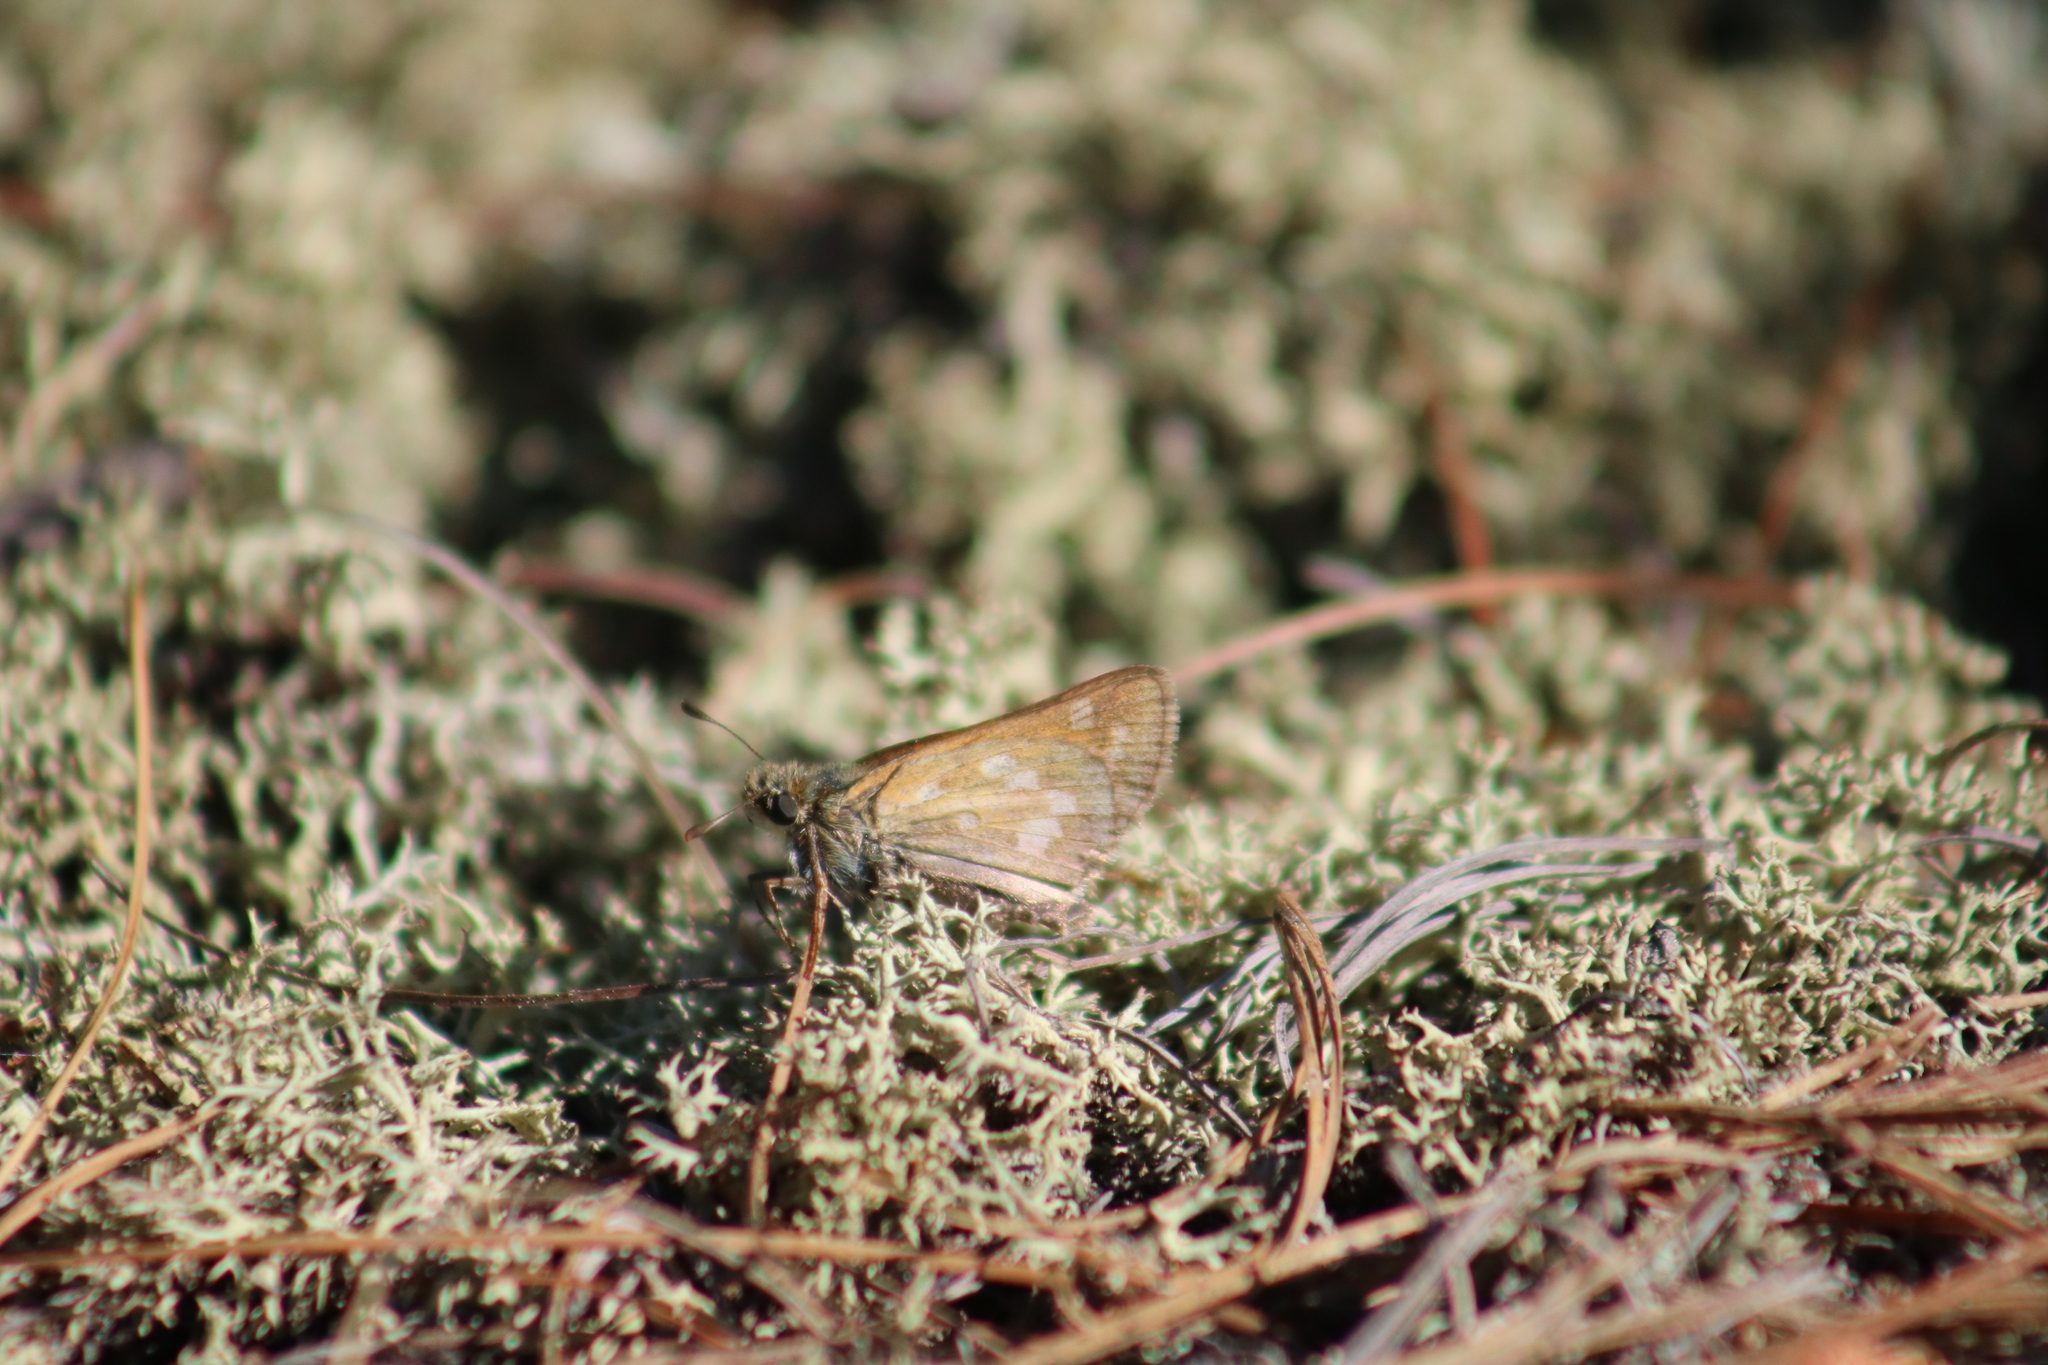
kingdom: Animalia
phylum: Arthropoda
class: Insecta
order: Lepidoptera
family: Hesperiidae
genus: Hesperia
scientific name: Hesperia sassacus
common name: Indian skipper
